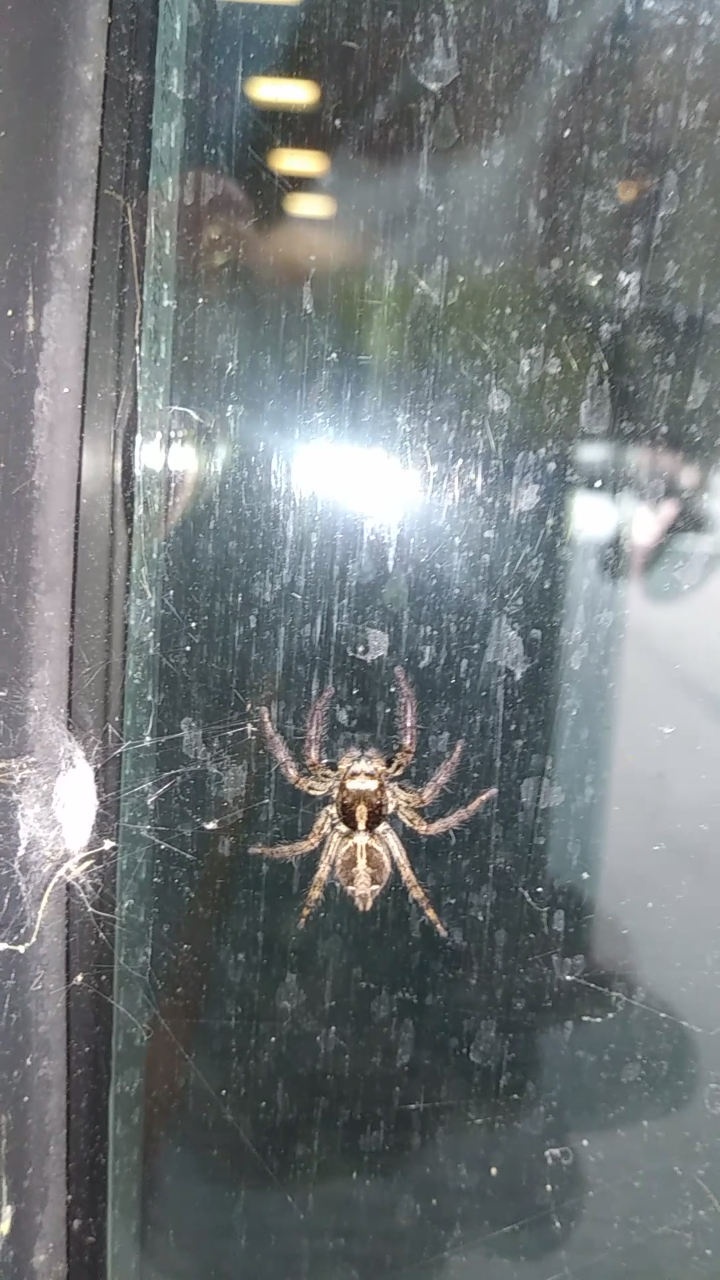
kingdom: Animalia
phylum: Arthropoda
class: Arachnida
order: Araneae
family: Salticidae
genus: Plexippus
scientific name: Plexippus paykulli
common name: Pantropical jumper
